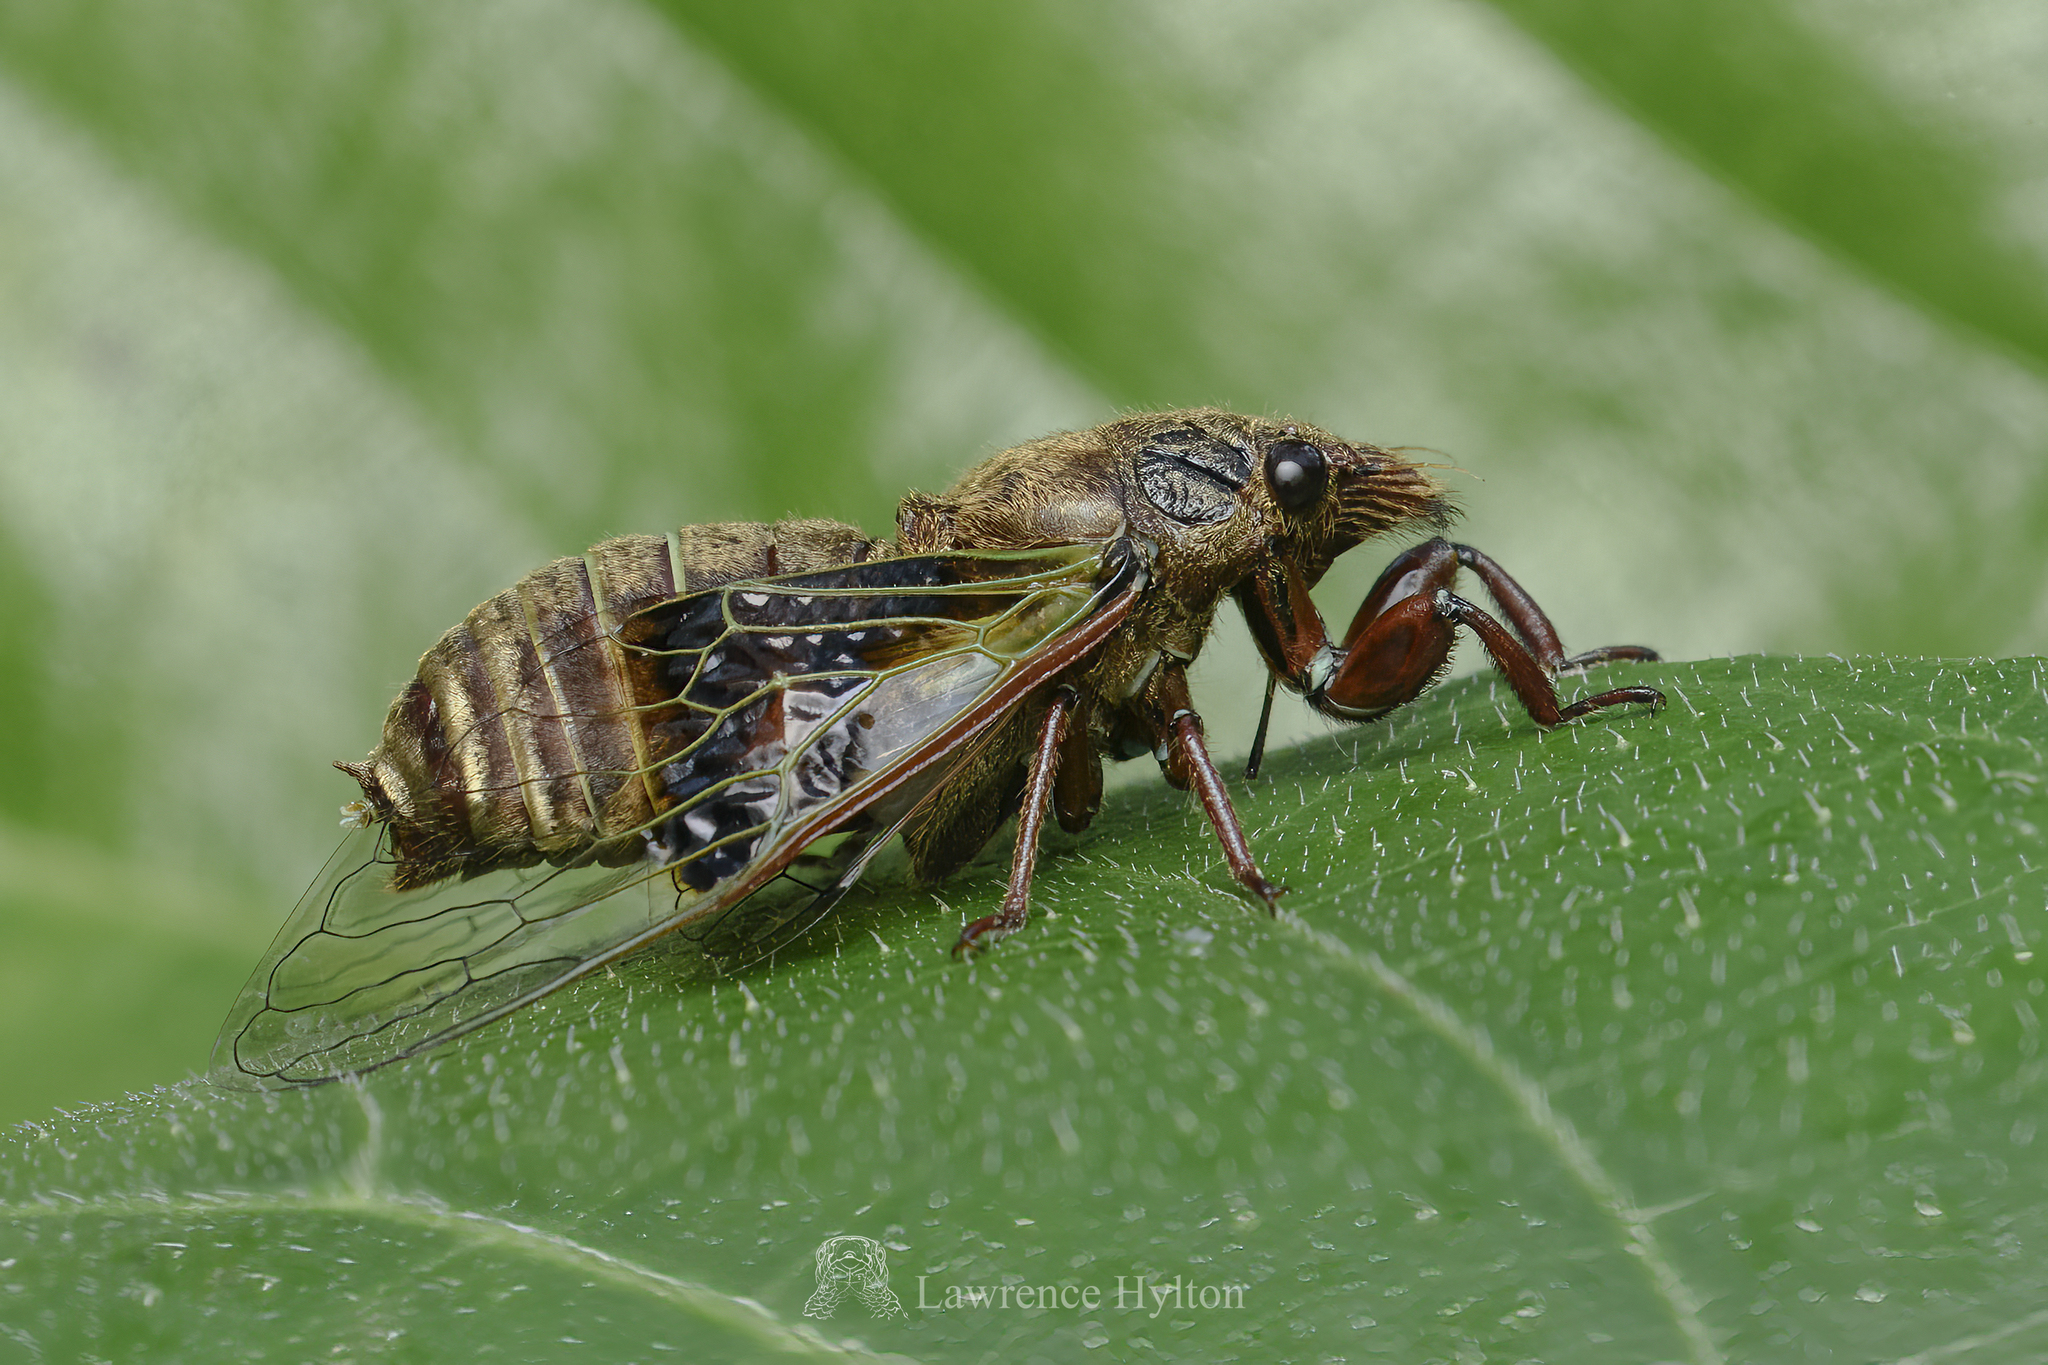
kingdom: Animalia
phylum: Arthropoda
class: Insecta
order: Hemiptera
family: Cicadidae
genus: Mogannia
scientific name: Mogannia nasalis
